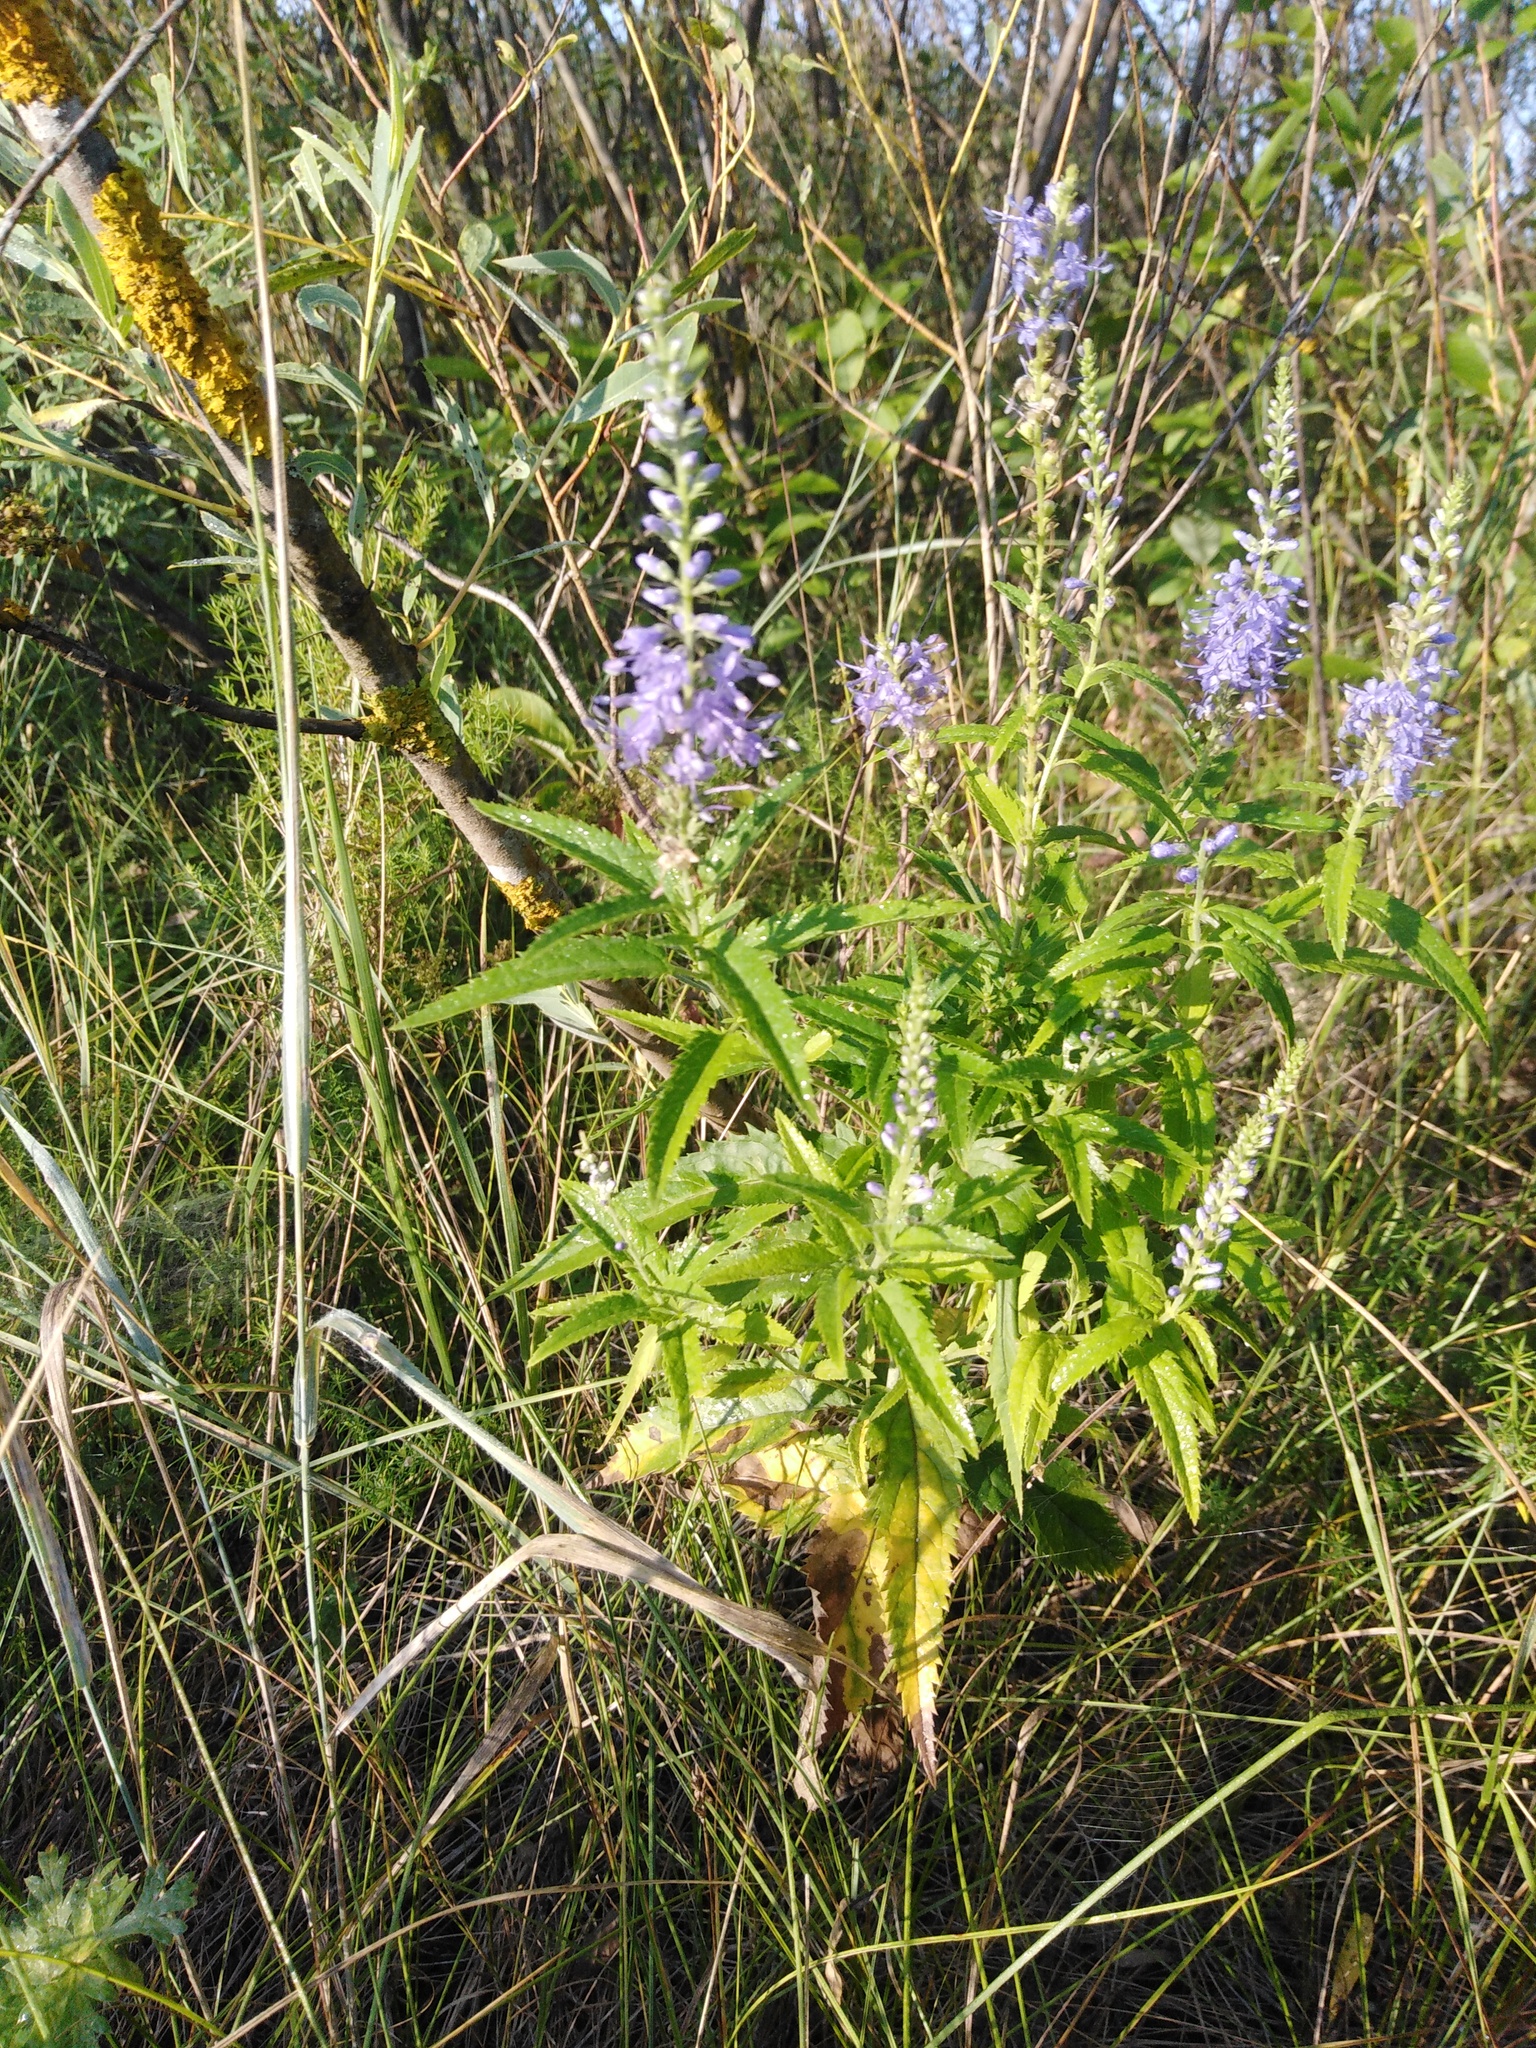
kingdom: Plantae
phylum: Tracheophyta
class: Magnoliopsida
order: Lamiales
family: Plantaginaceae
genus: Veronica
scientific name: Veronica longifolia
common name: Garden speedwell
